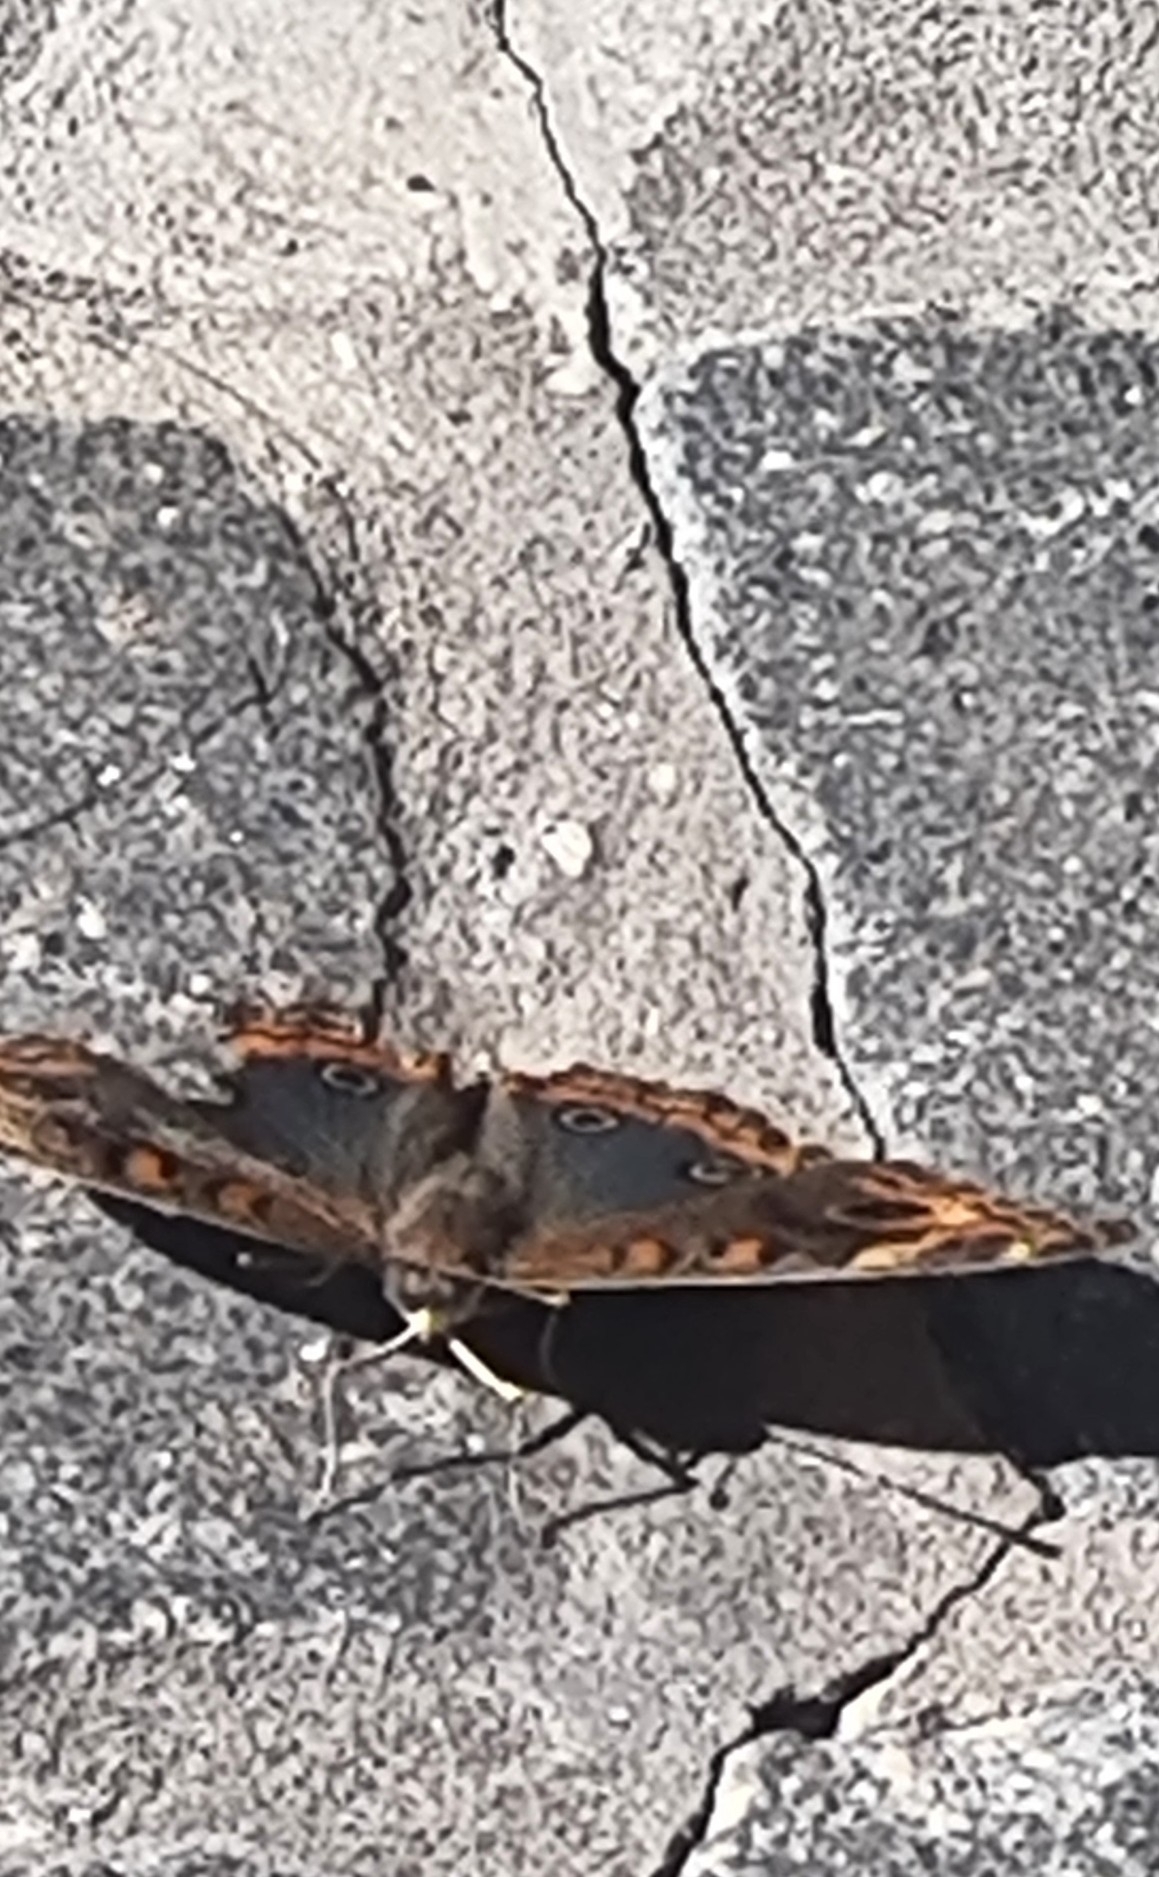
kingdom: Animalia
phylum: Arthropoda
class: Insecta
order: Lepidoptera
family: Nymphalidae
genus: Junonia
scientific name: Junonia lavinia
